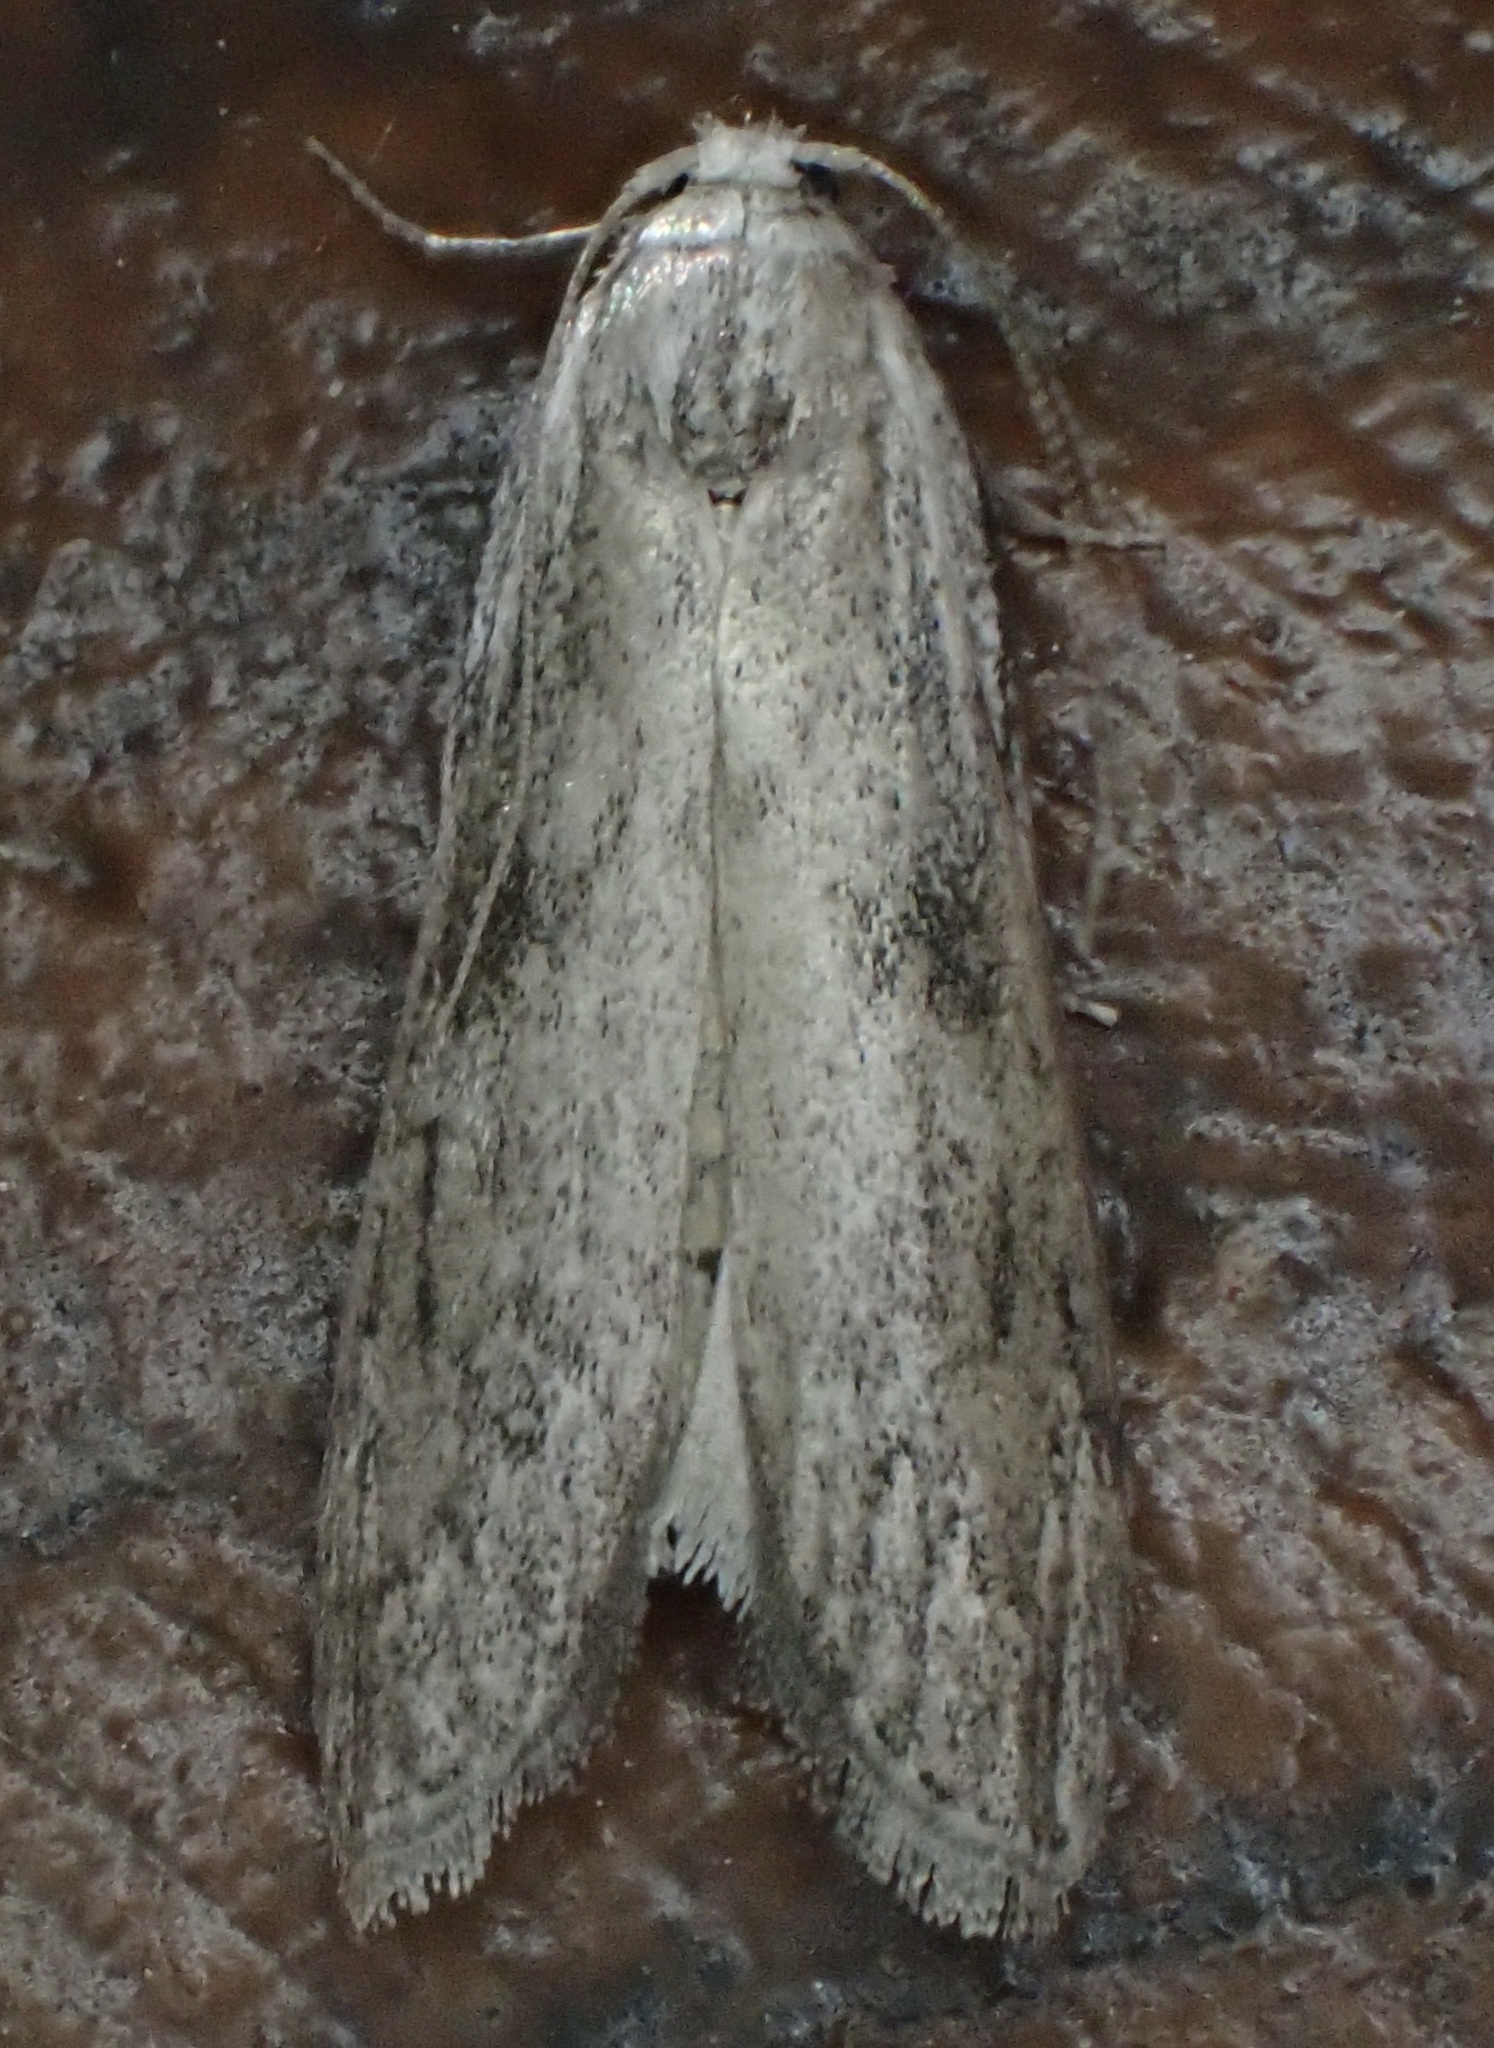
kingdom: Animalia
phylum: Arthropoda
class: Insecta
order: Lepidoptera
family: Pyralidae
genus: Aphomia
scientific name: Aphomia sociella
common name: Bee moth
